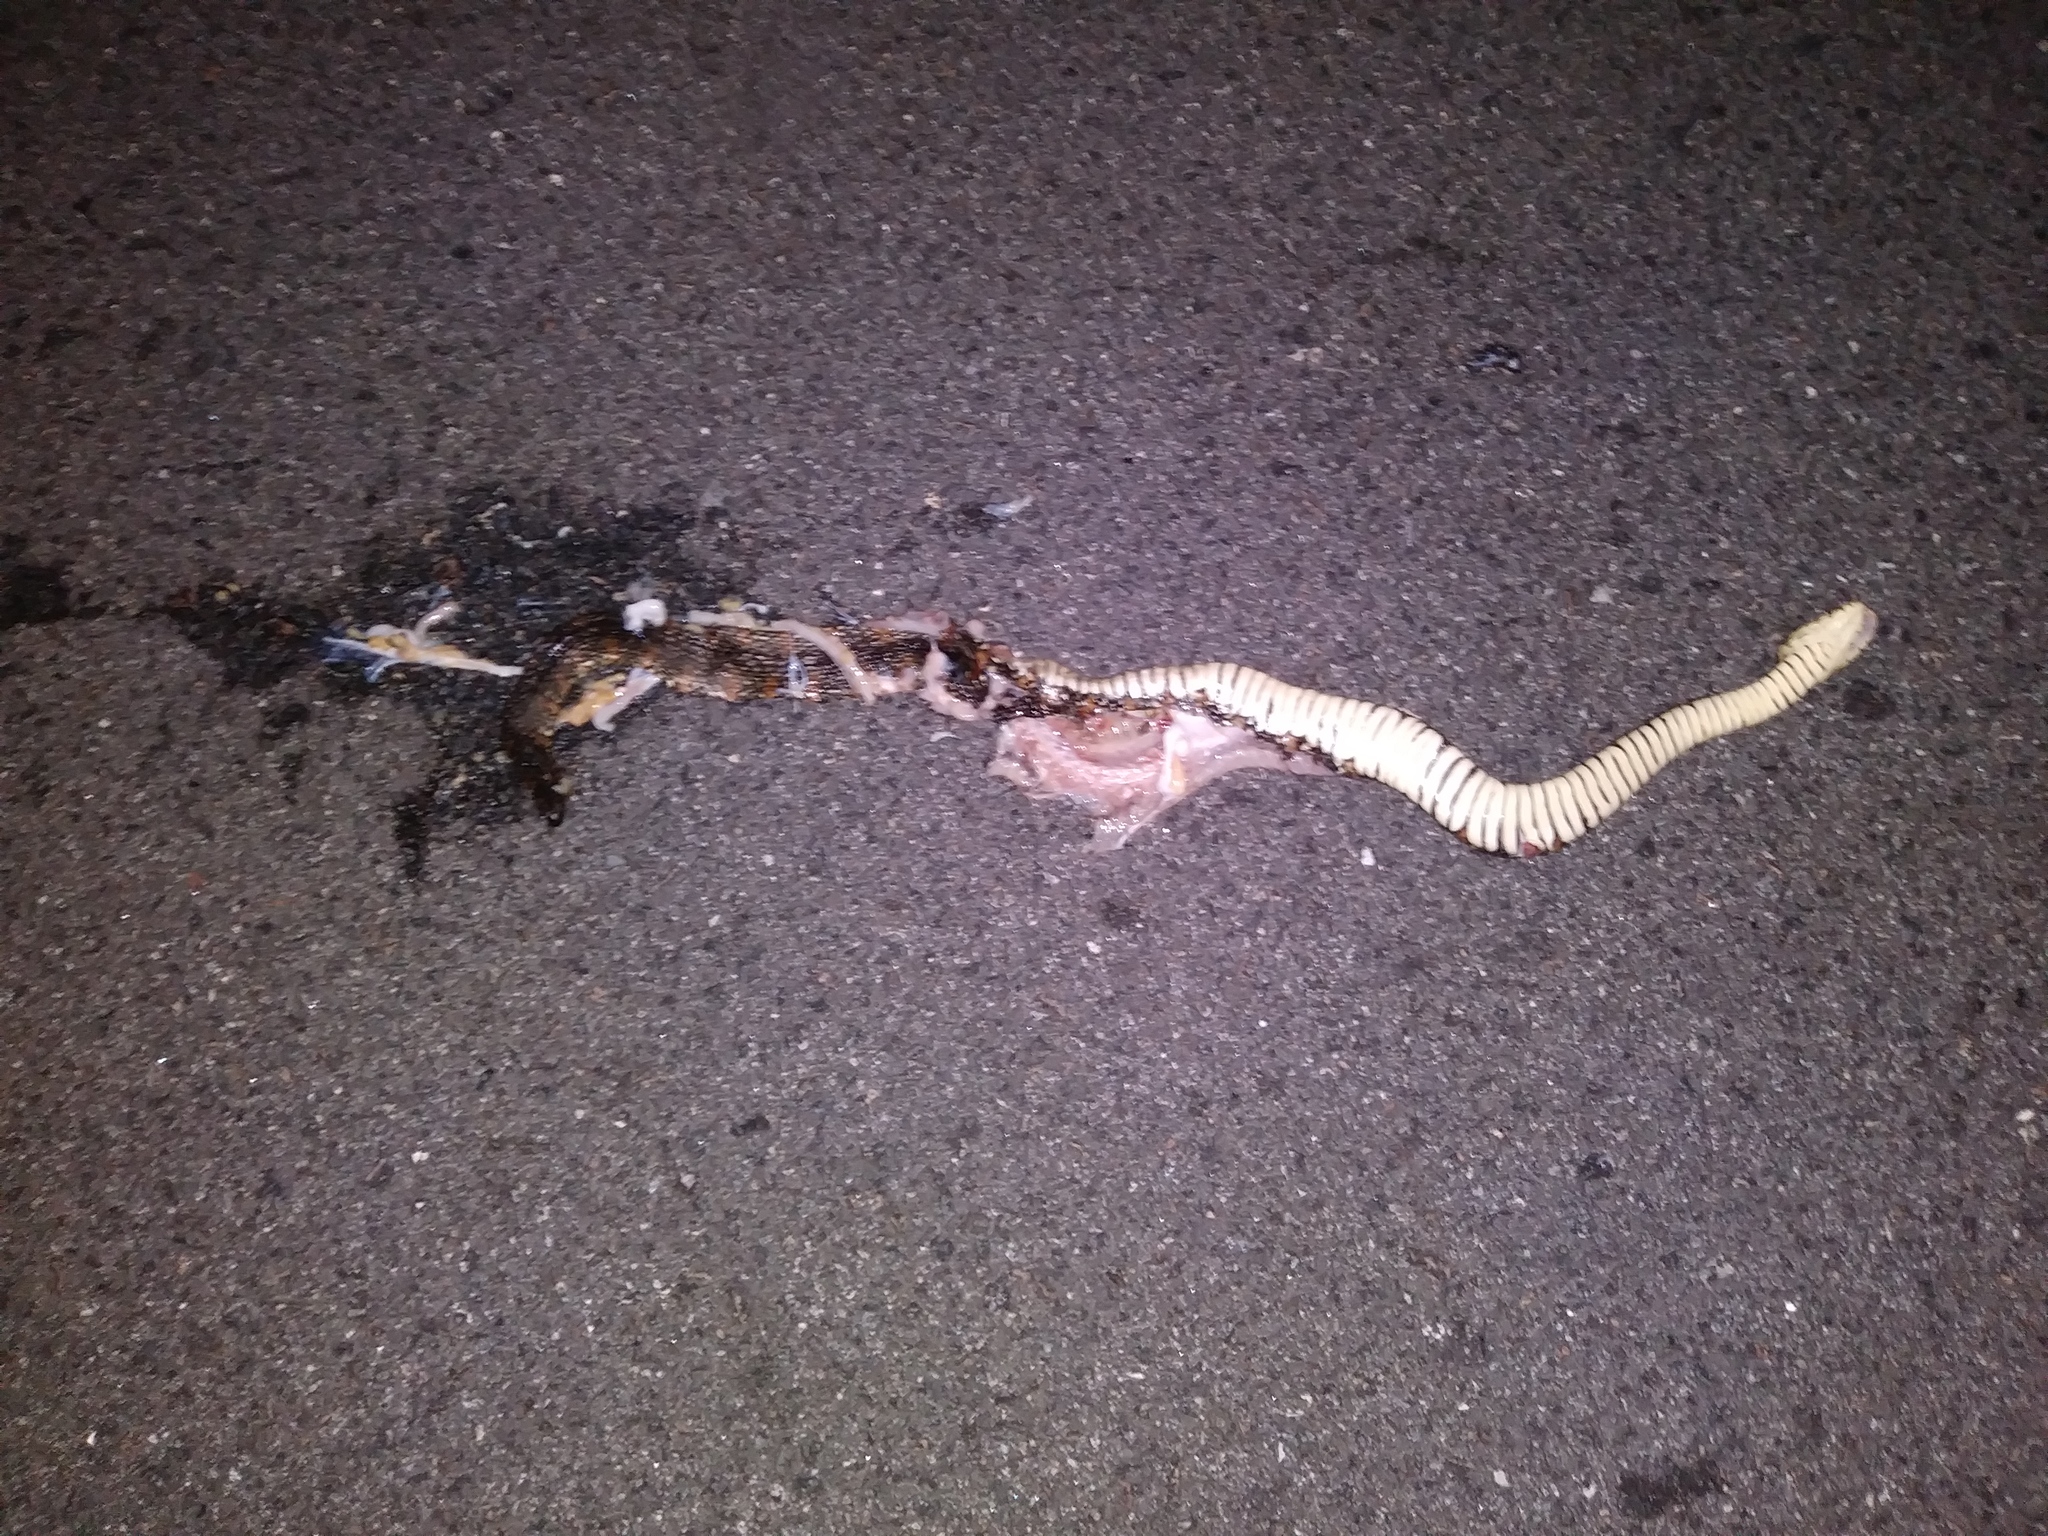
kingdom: Animalia
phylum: Chordata
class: Squamata
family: Colubridae
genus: Nerodia
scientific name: Nerodia fasciata
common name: Southern water snake
